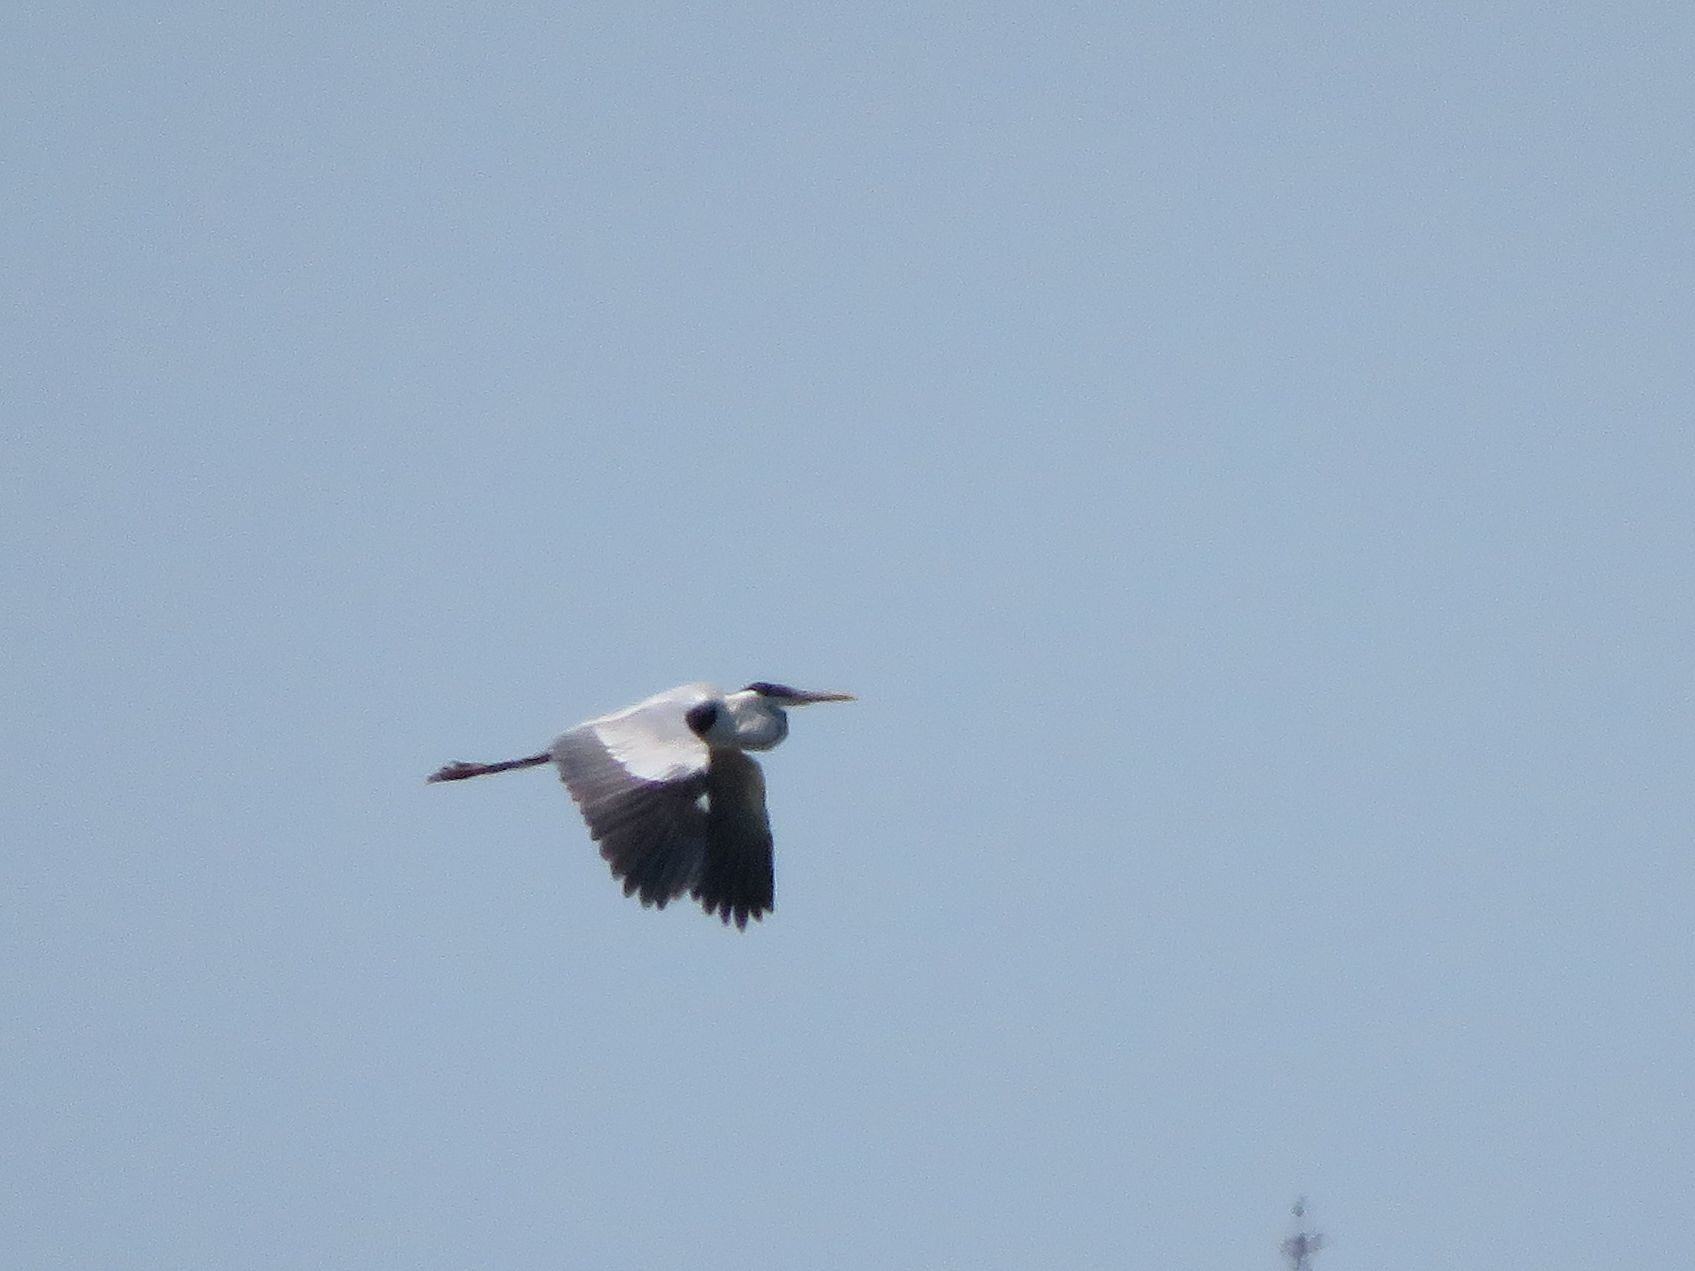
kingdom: Animalia
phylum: Chordata
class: Aves
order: Pelecaniformes
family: Ardeidae
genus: Ardea
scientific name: Ardea cocoi
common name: Cocoi heron
